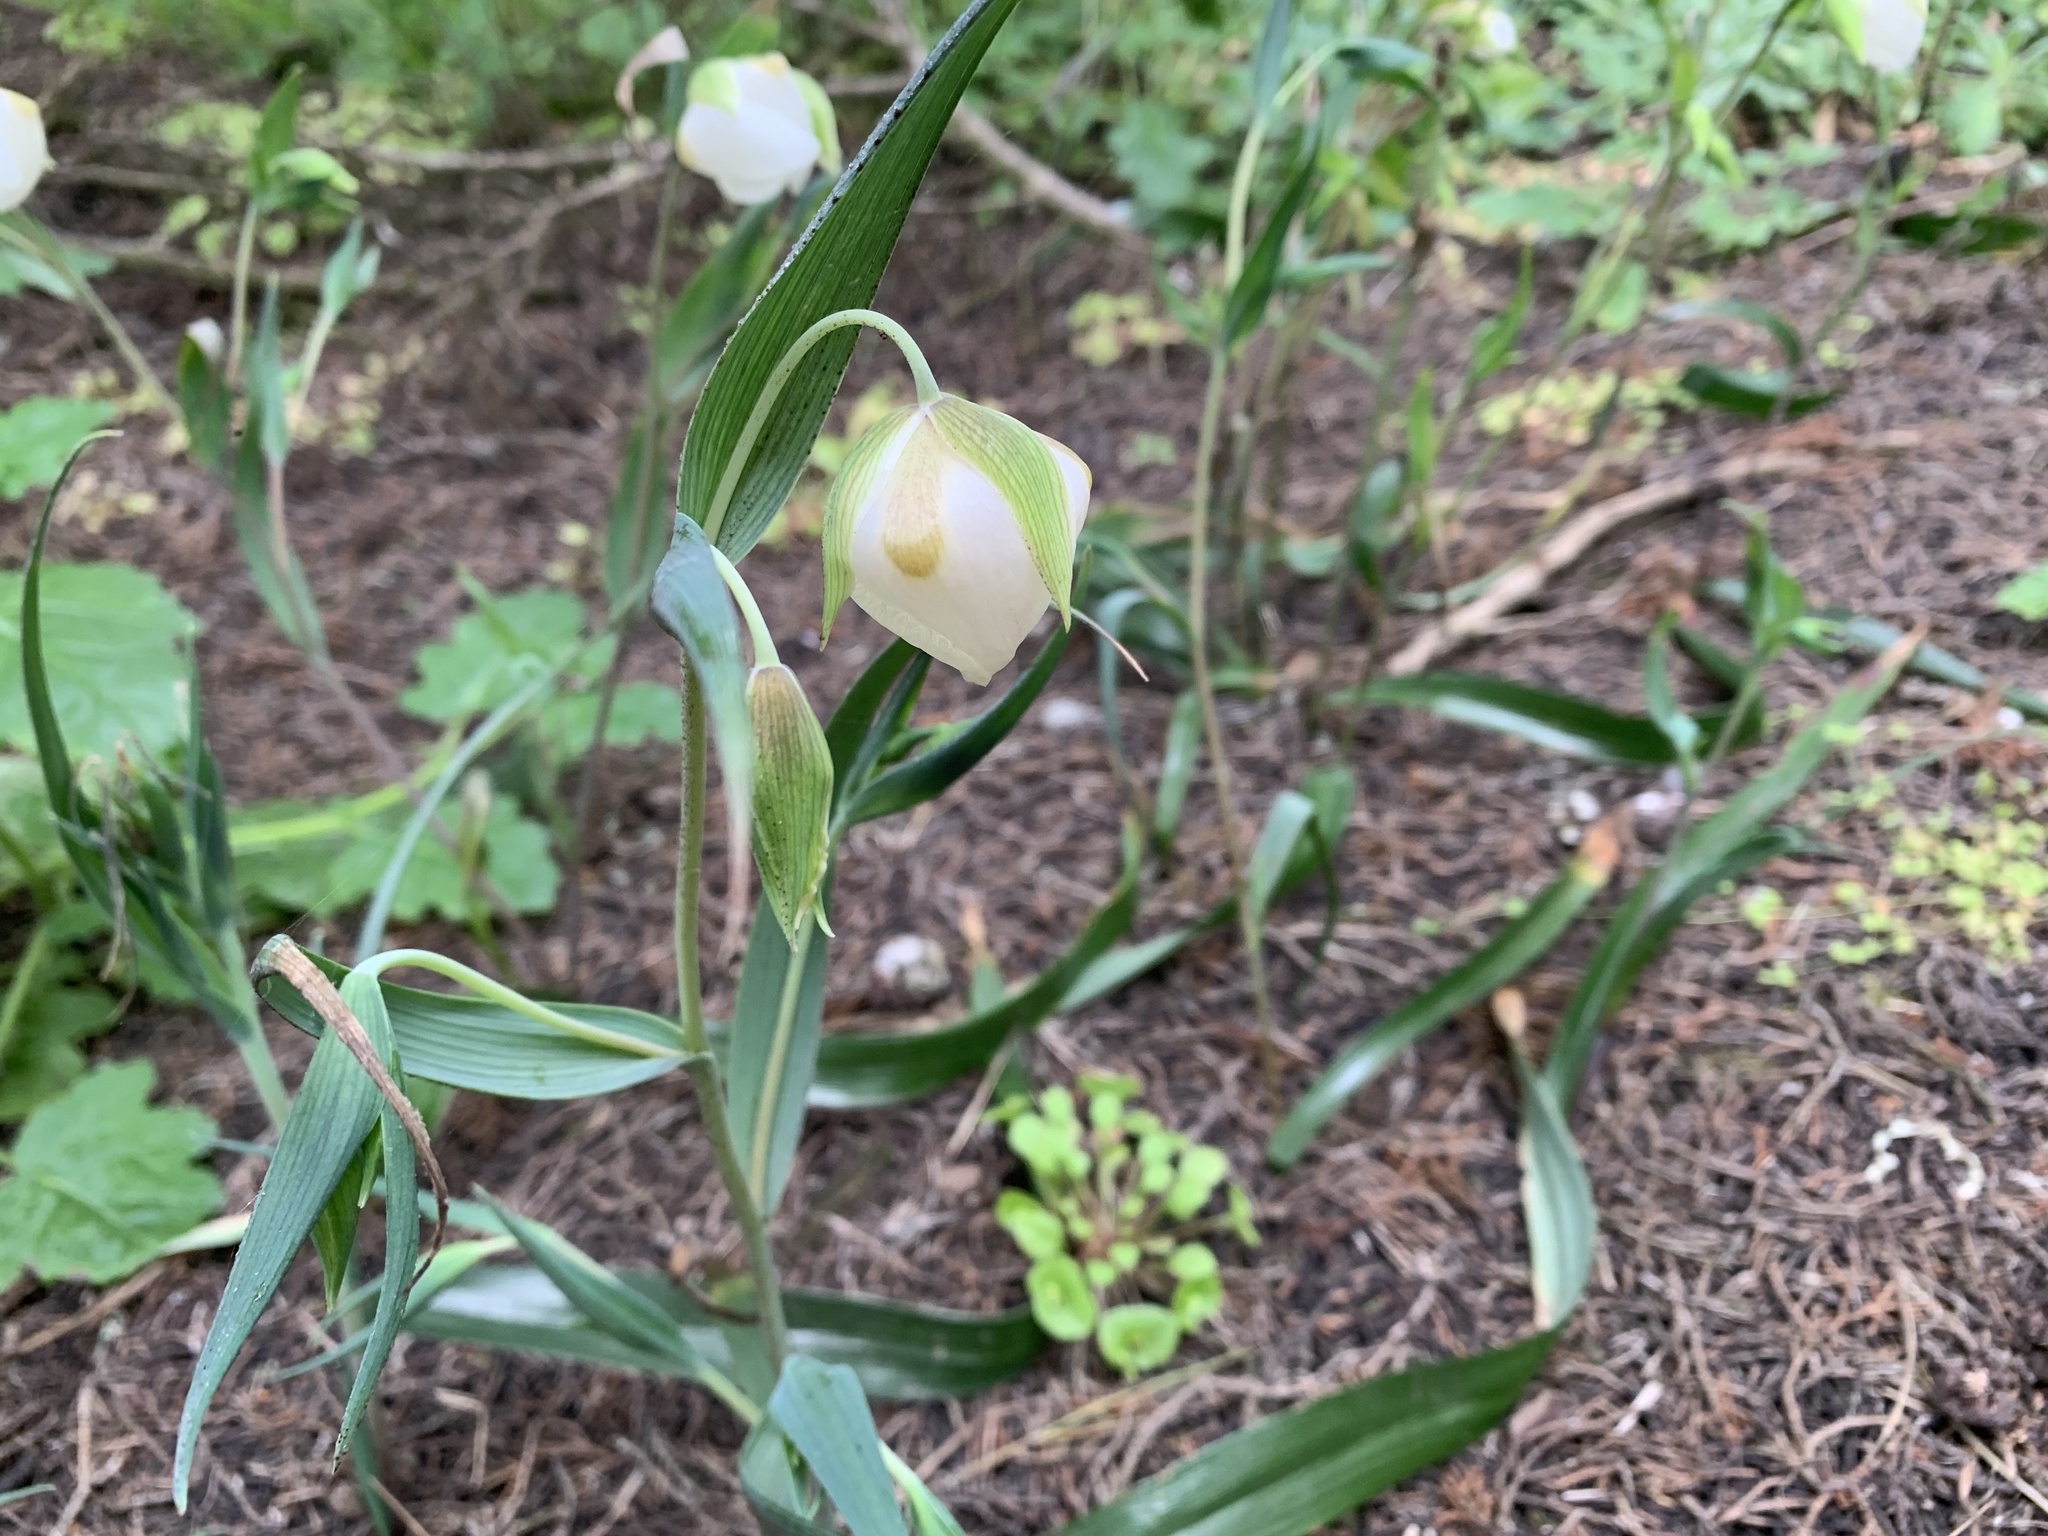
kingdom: Plantae
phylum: Tracheophyta
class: Liliopsida
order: Liliales
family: Liliaceae
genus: Calochortus
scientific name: Calochortus albus
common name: Fairy-lantern
